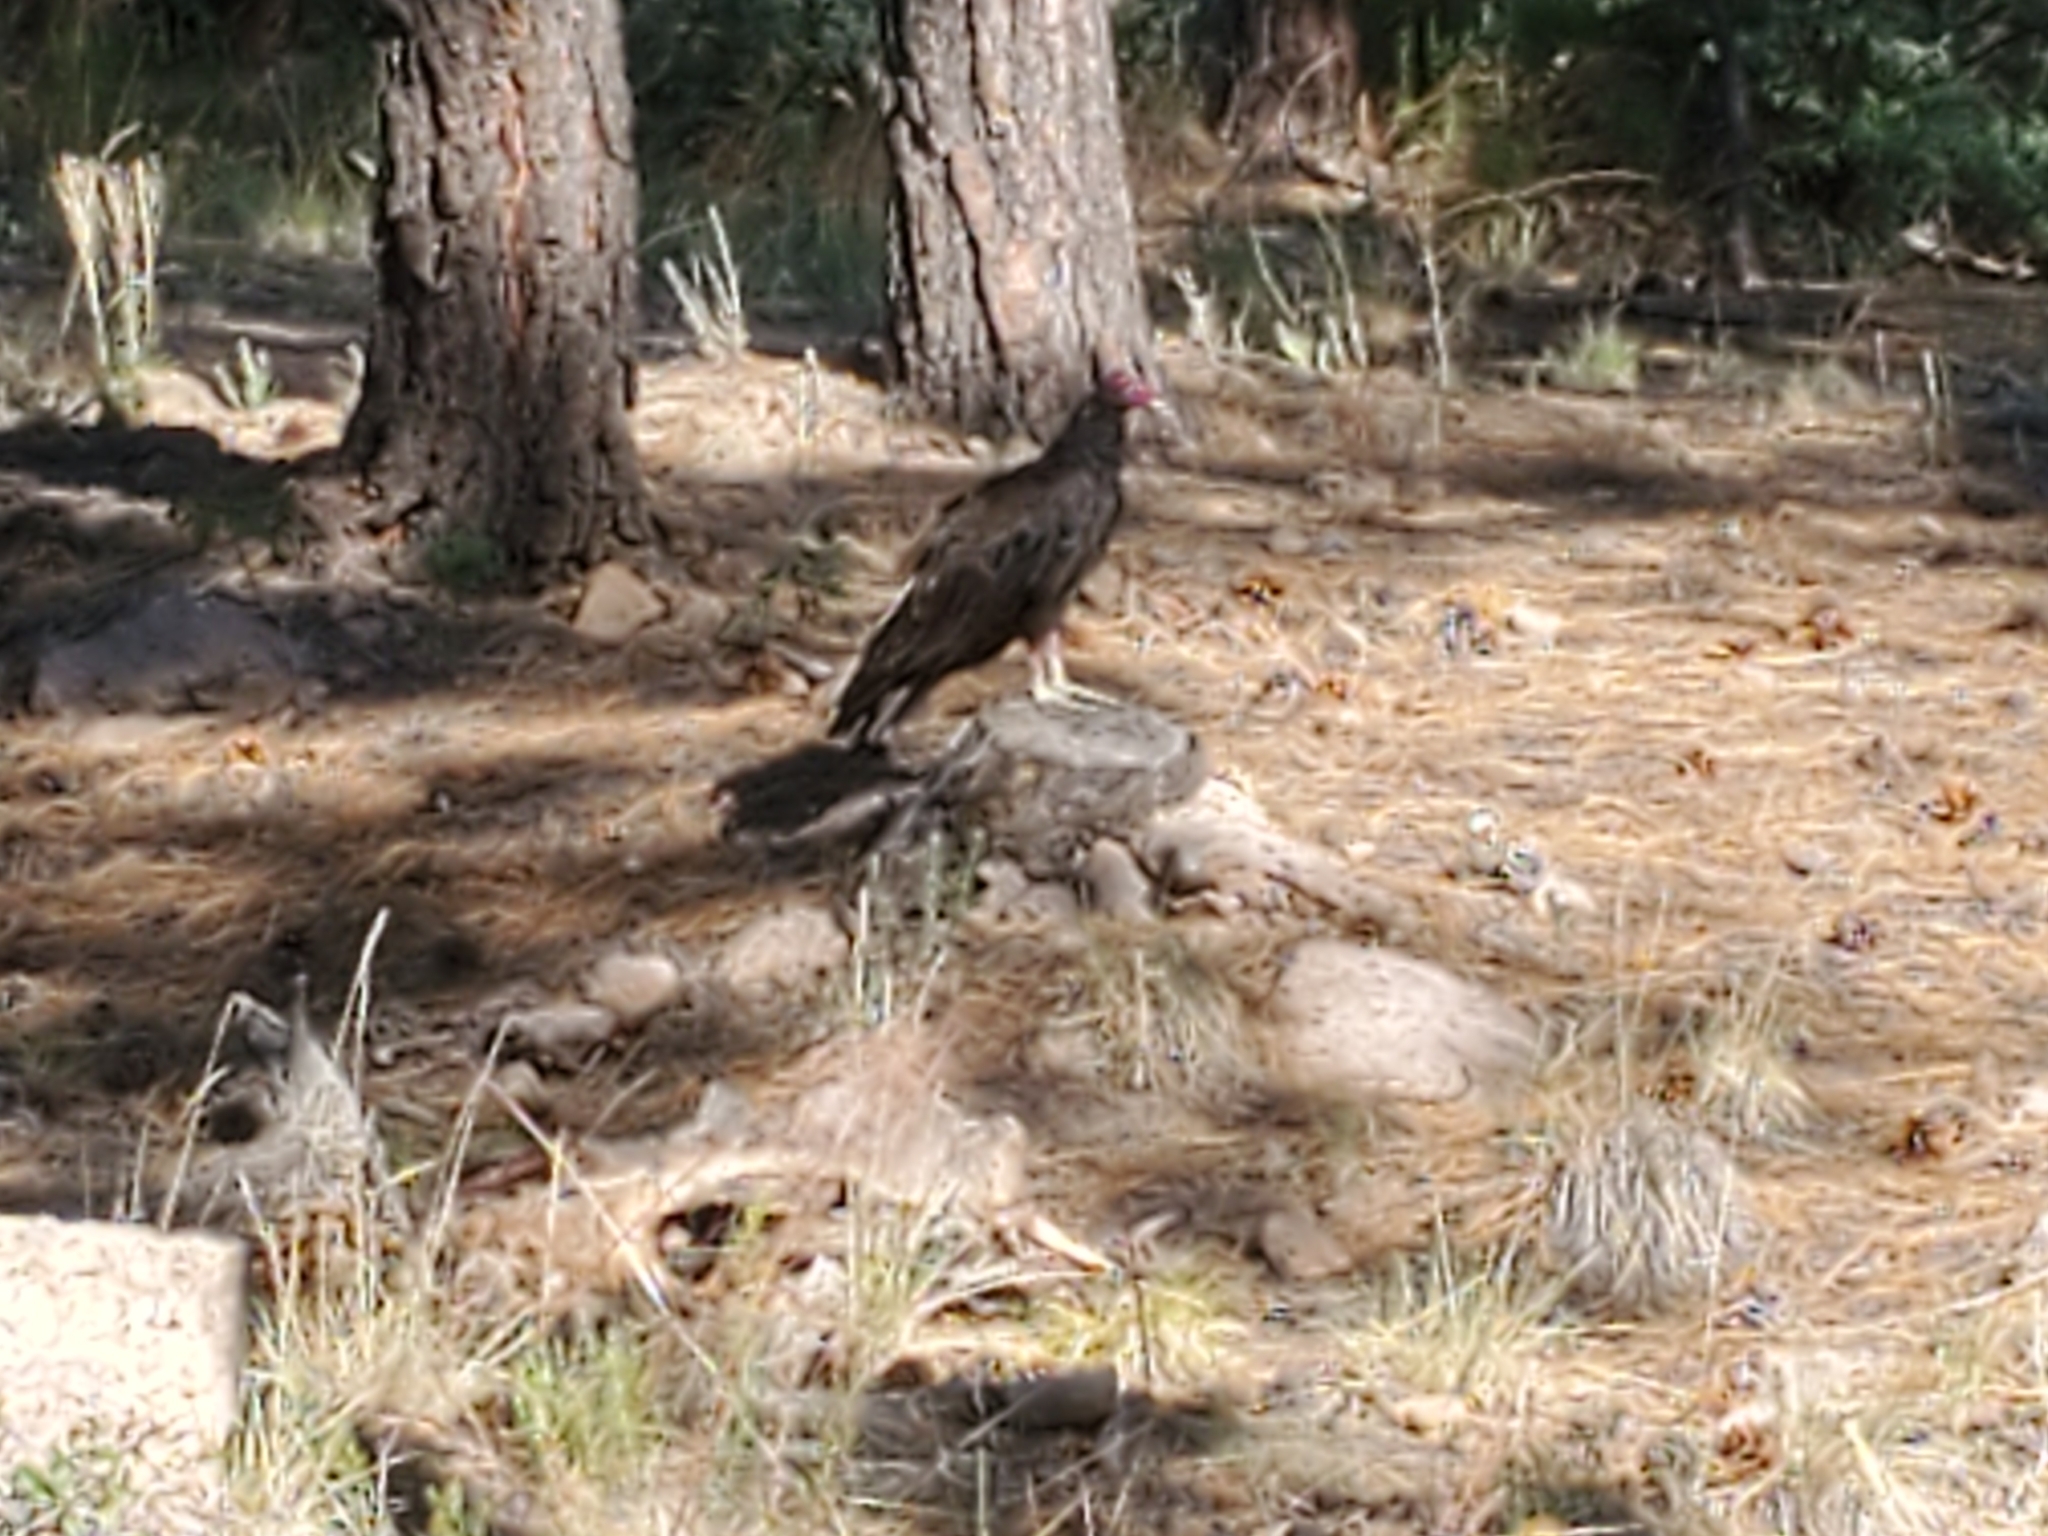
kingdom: Animalia
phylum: Chordata
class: Aves
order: Accipitriformes
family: Cathartidae
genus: Cathartes
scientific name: Cathartes aura
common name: Turkey vulture
